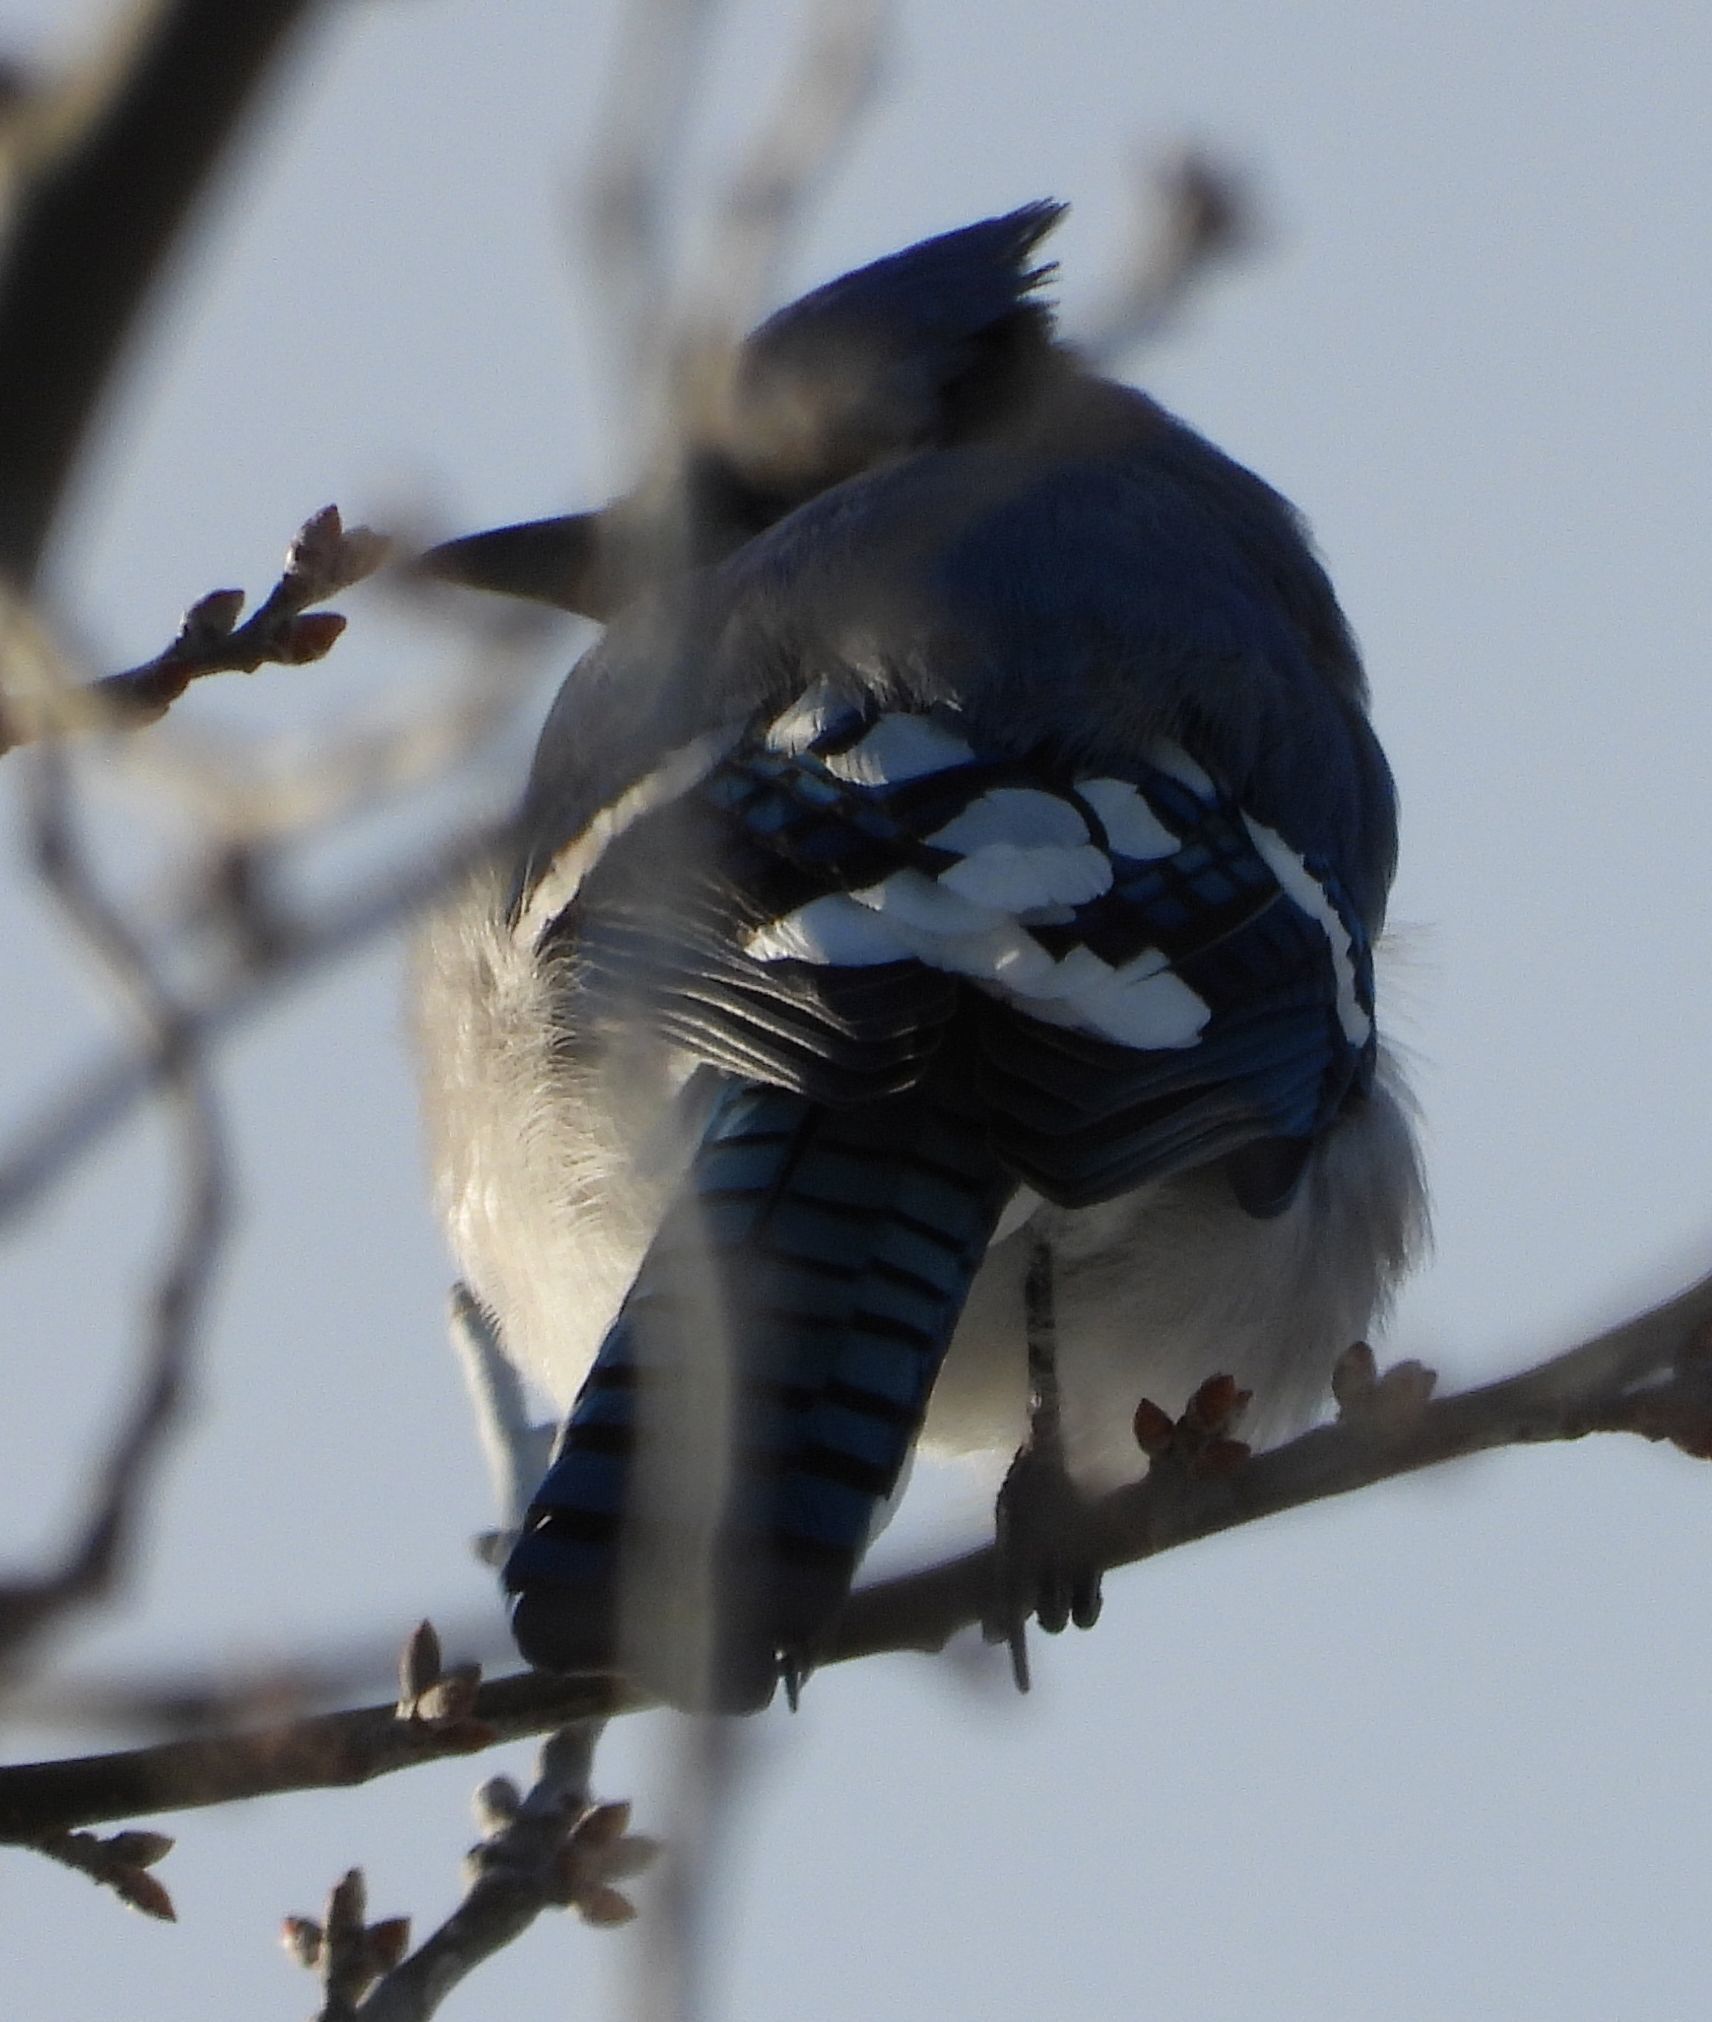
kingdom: Animalia
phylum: Chordata
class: Aves
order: Passeriformes
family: Corvidae
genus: Cyanocitta
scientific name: Cyanocitta cristata
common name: Blue jay
